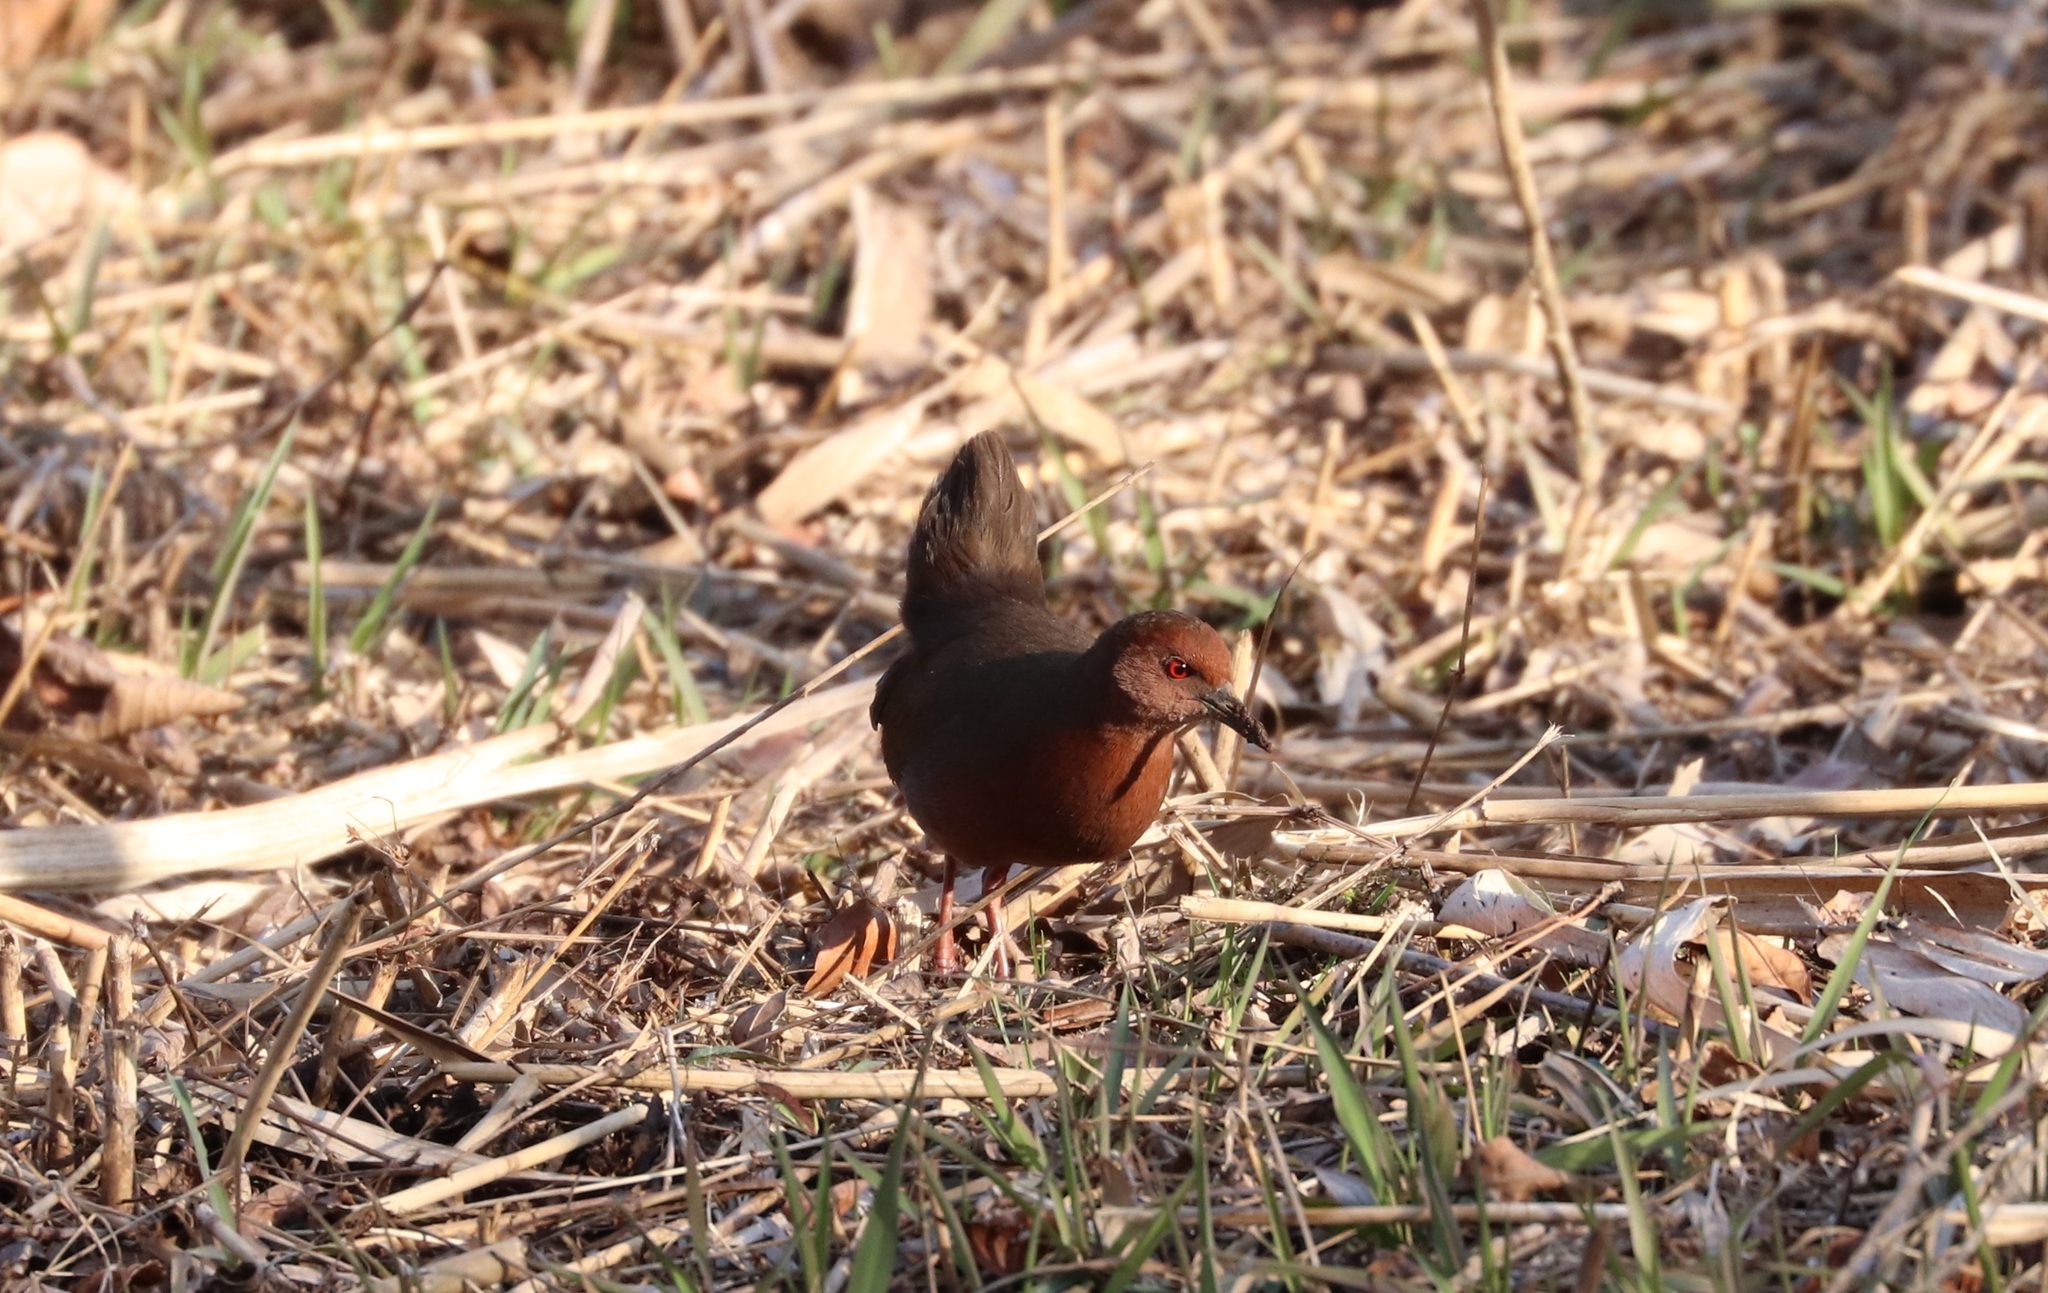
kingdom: Animalia
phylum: Chordata
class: Aves
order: Gruiformes
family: Rallidae
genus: Porzana
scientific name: Porzana fusca
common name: Ruddy-breasted crake
